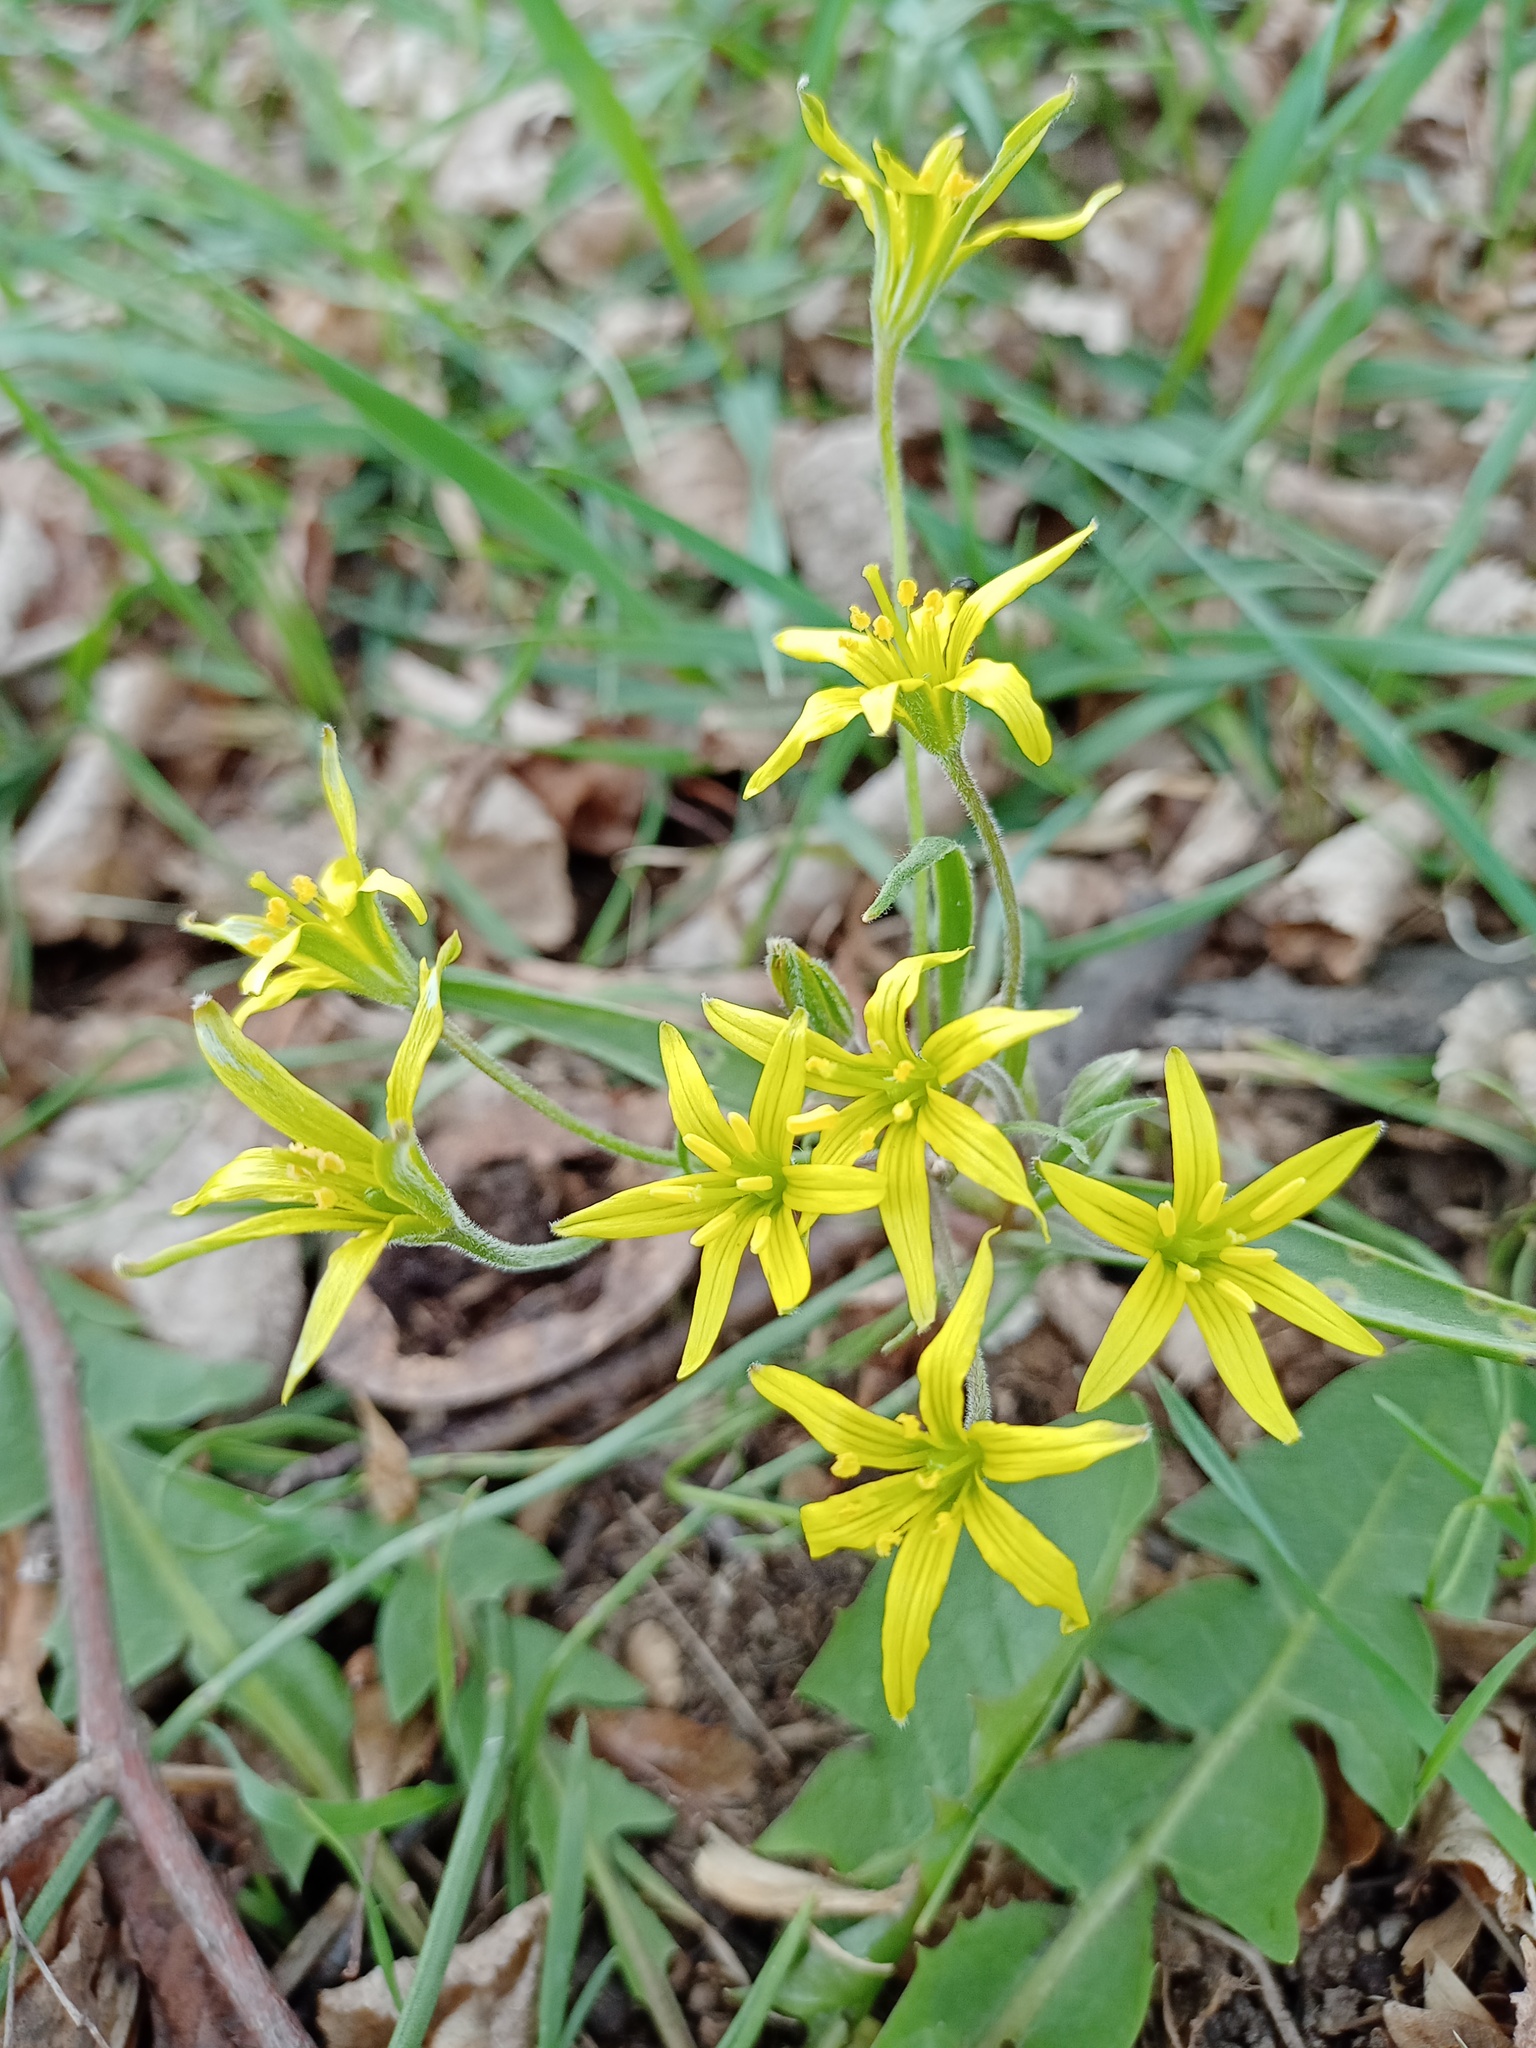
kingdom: Plantae
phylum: Tracheophyta
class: Liliopsida
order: Liliales
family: Liliaceae
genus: Gagea
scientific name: Gagea villosa
